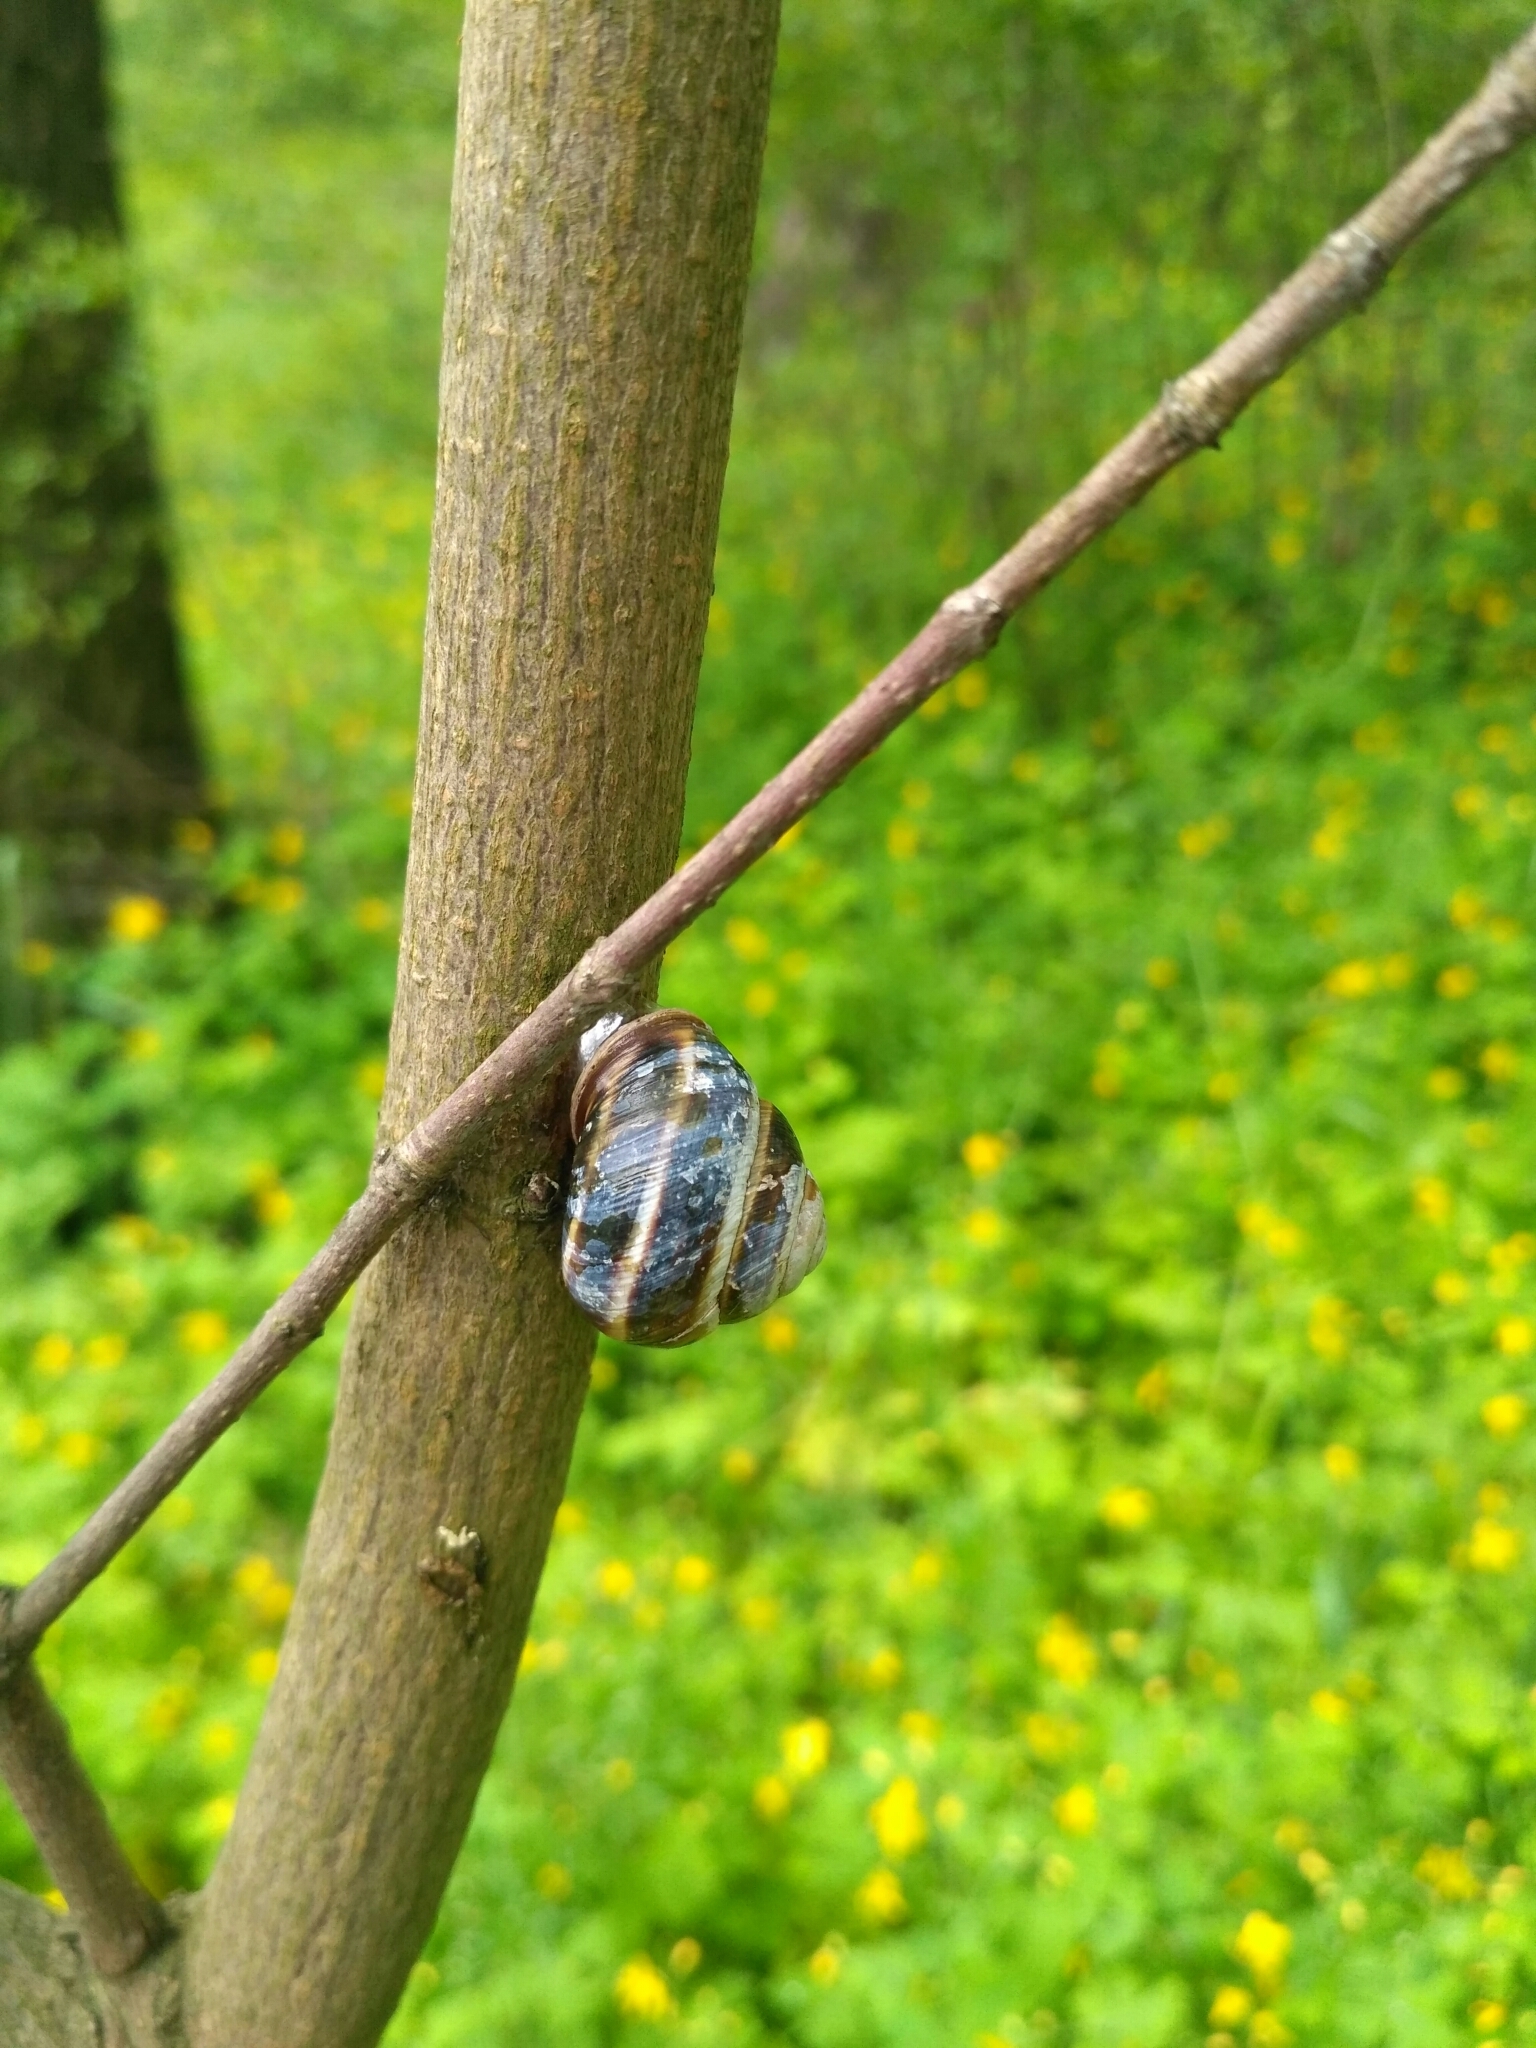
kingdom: Animalia
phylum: Mollusca
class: Gastropoda
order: Stylommatophora
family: Helicidae
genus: Caucasotachea
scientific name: Caucasotachea vindobonensis
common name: European helicid land snail
